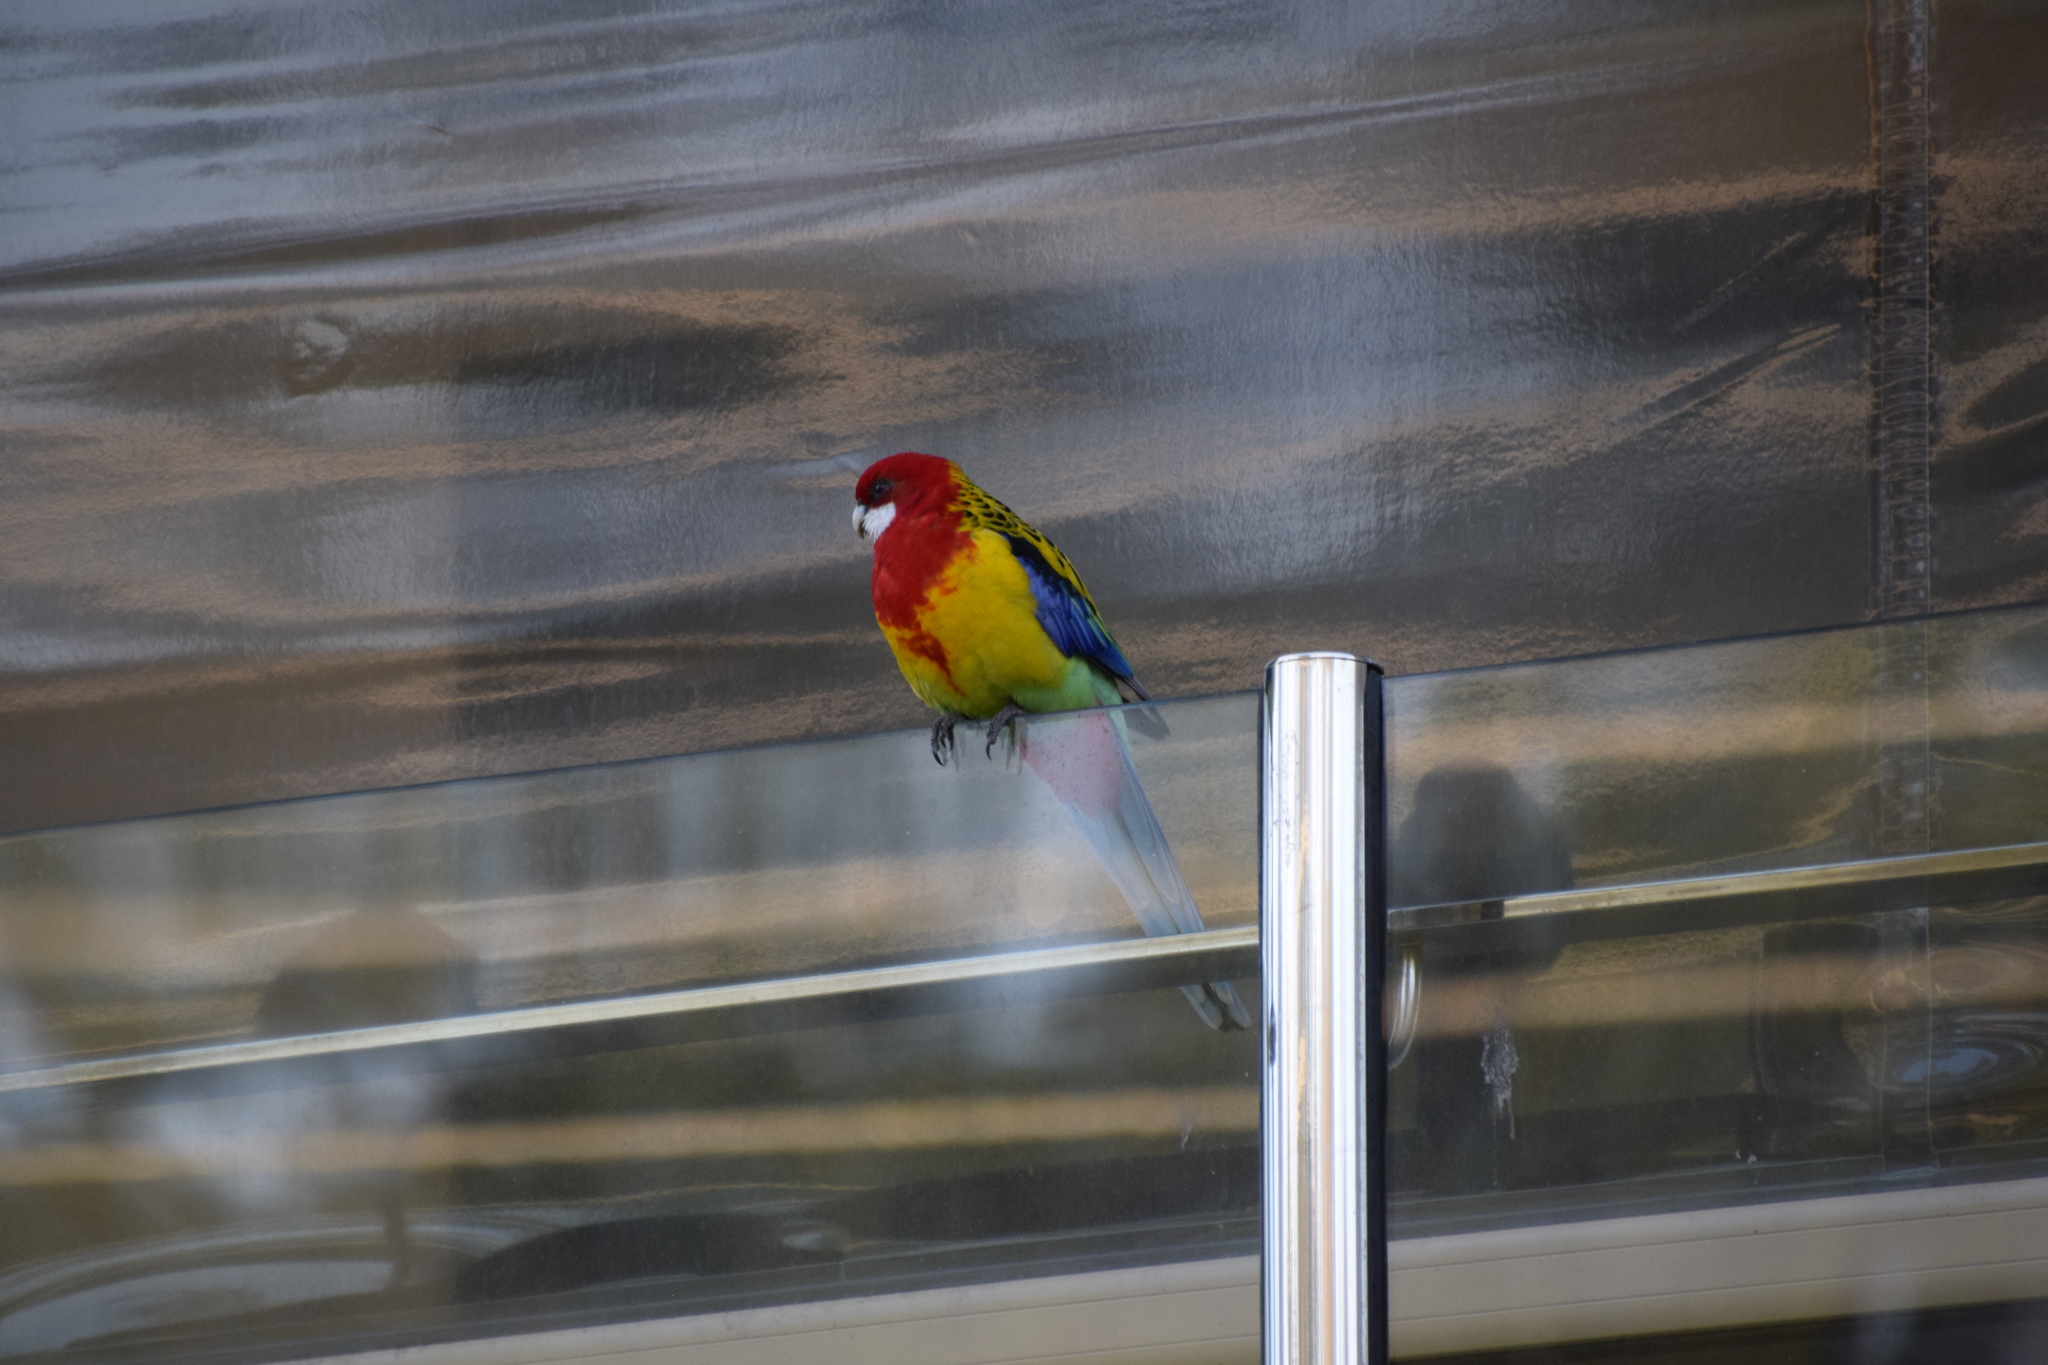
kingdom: Animalia
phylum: Chordata
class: Aves
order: Psittaciformes
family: Psittacidae
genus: Platycercus
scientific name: Platycercus eximius
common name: Eastern rosella
